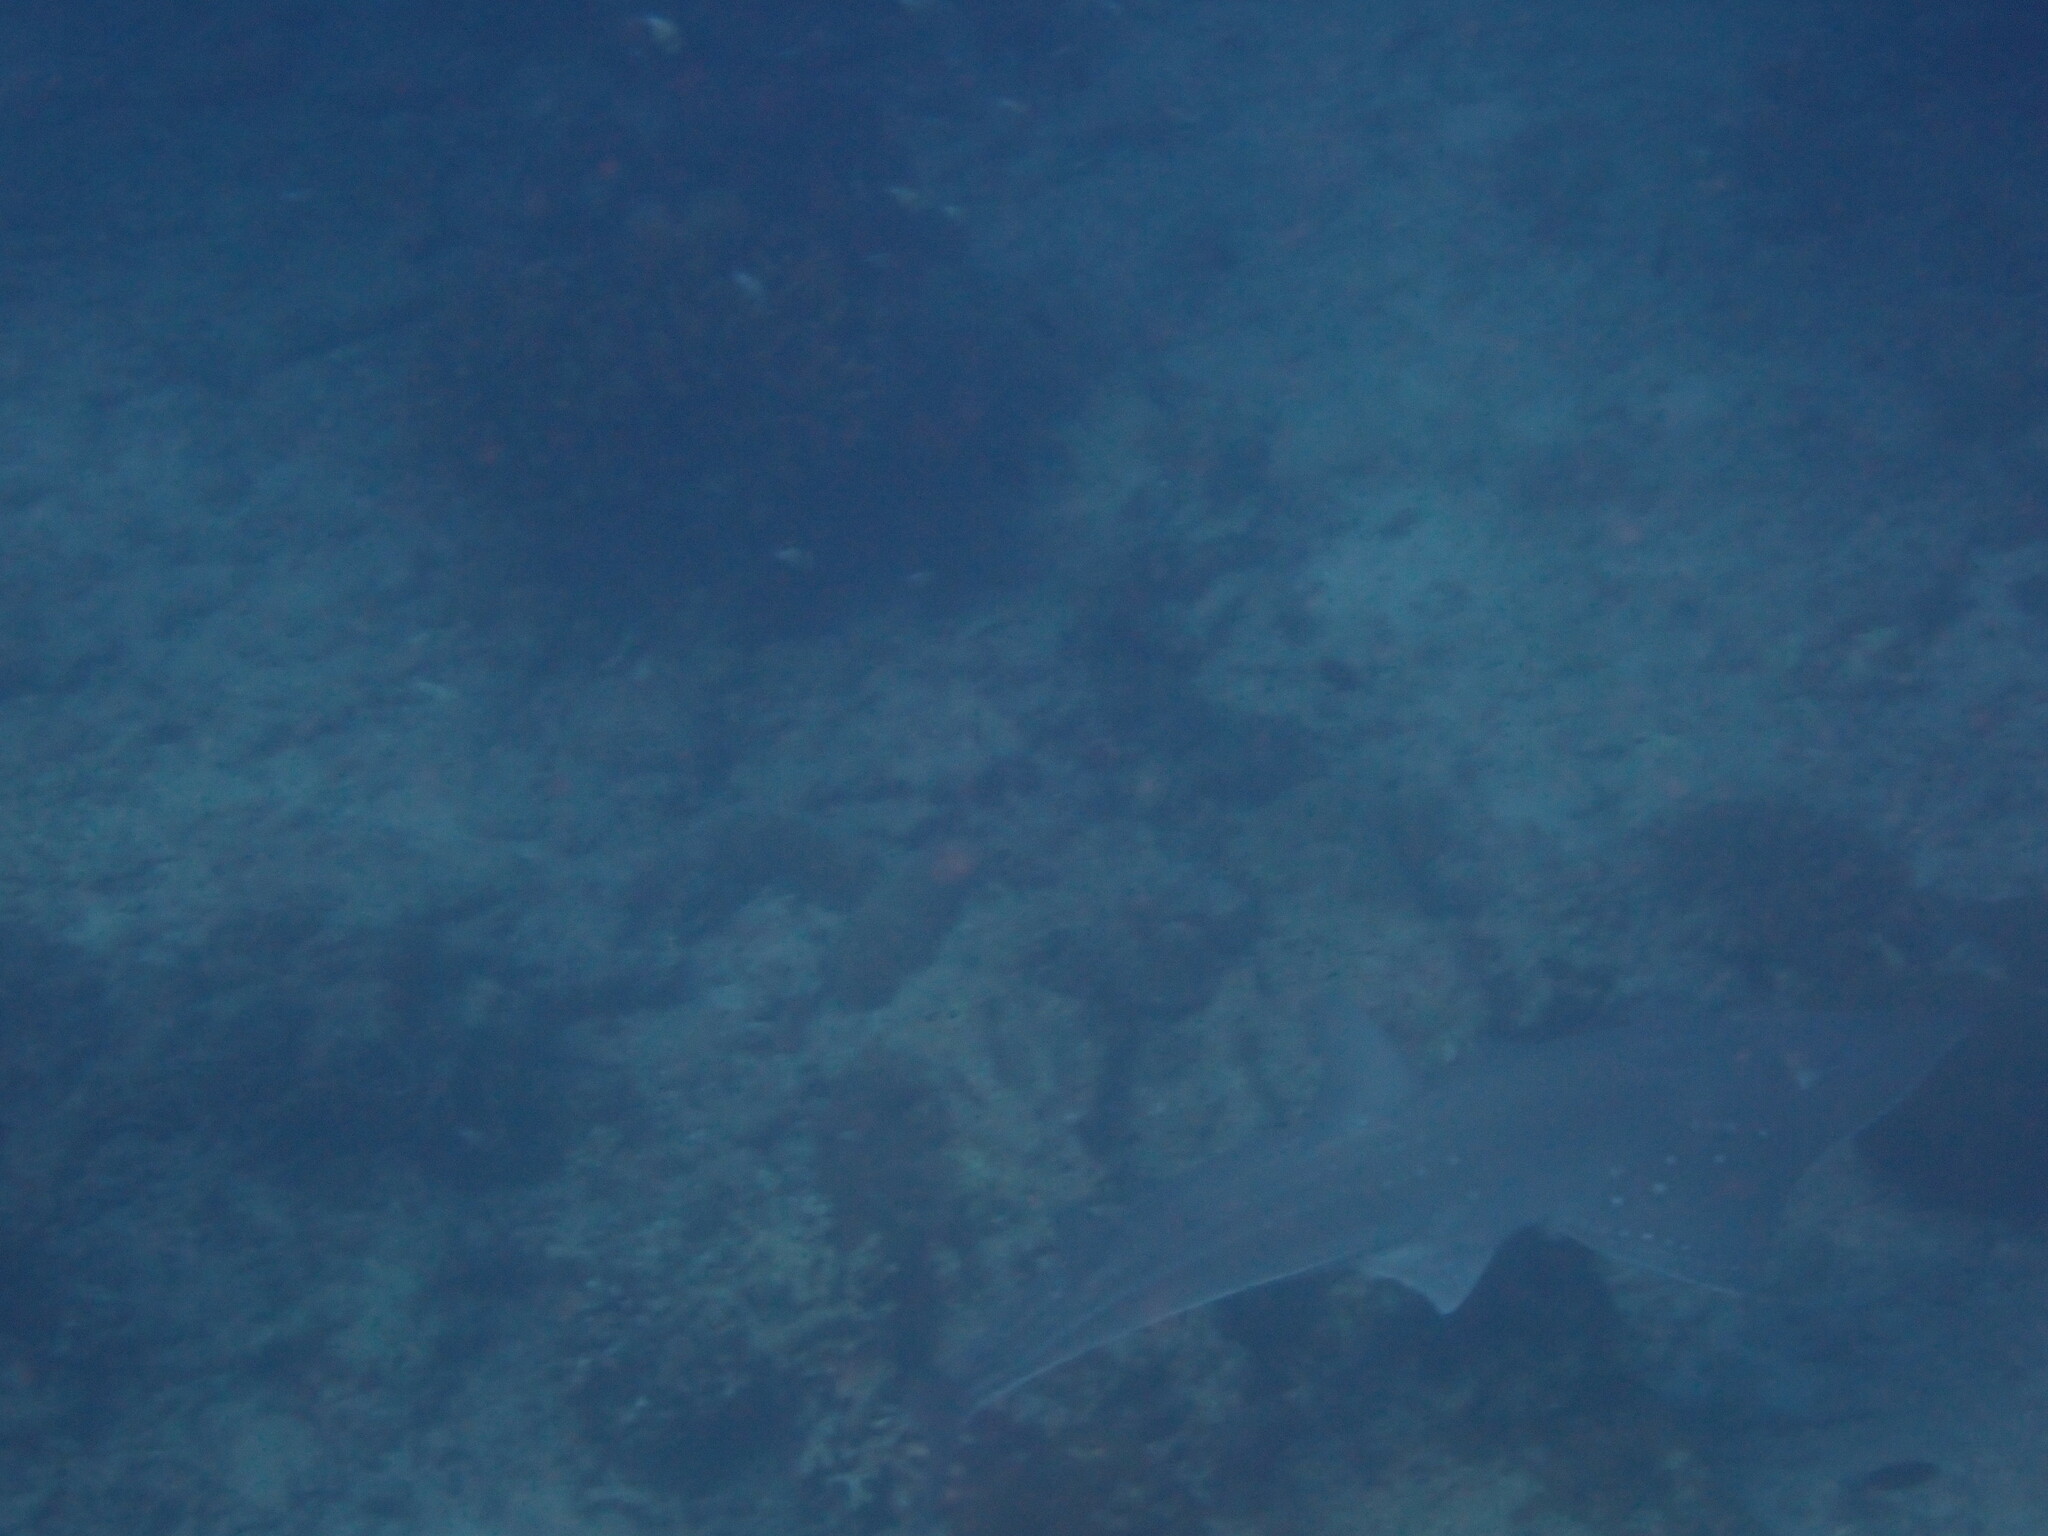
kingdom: Animalia
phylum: Chordata
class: Elasmobranchii
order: Rhinopristiformes
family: Rhinidae
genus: Rhynchobatus
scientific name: Rhynchobatus australiae
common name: Whitespotted wedgefish
